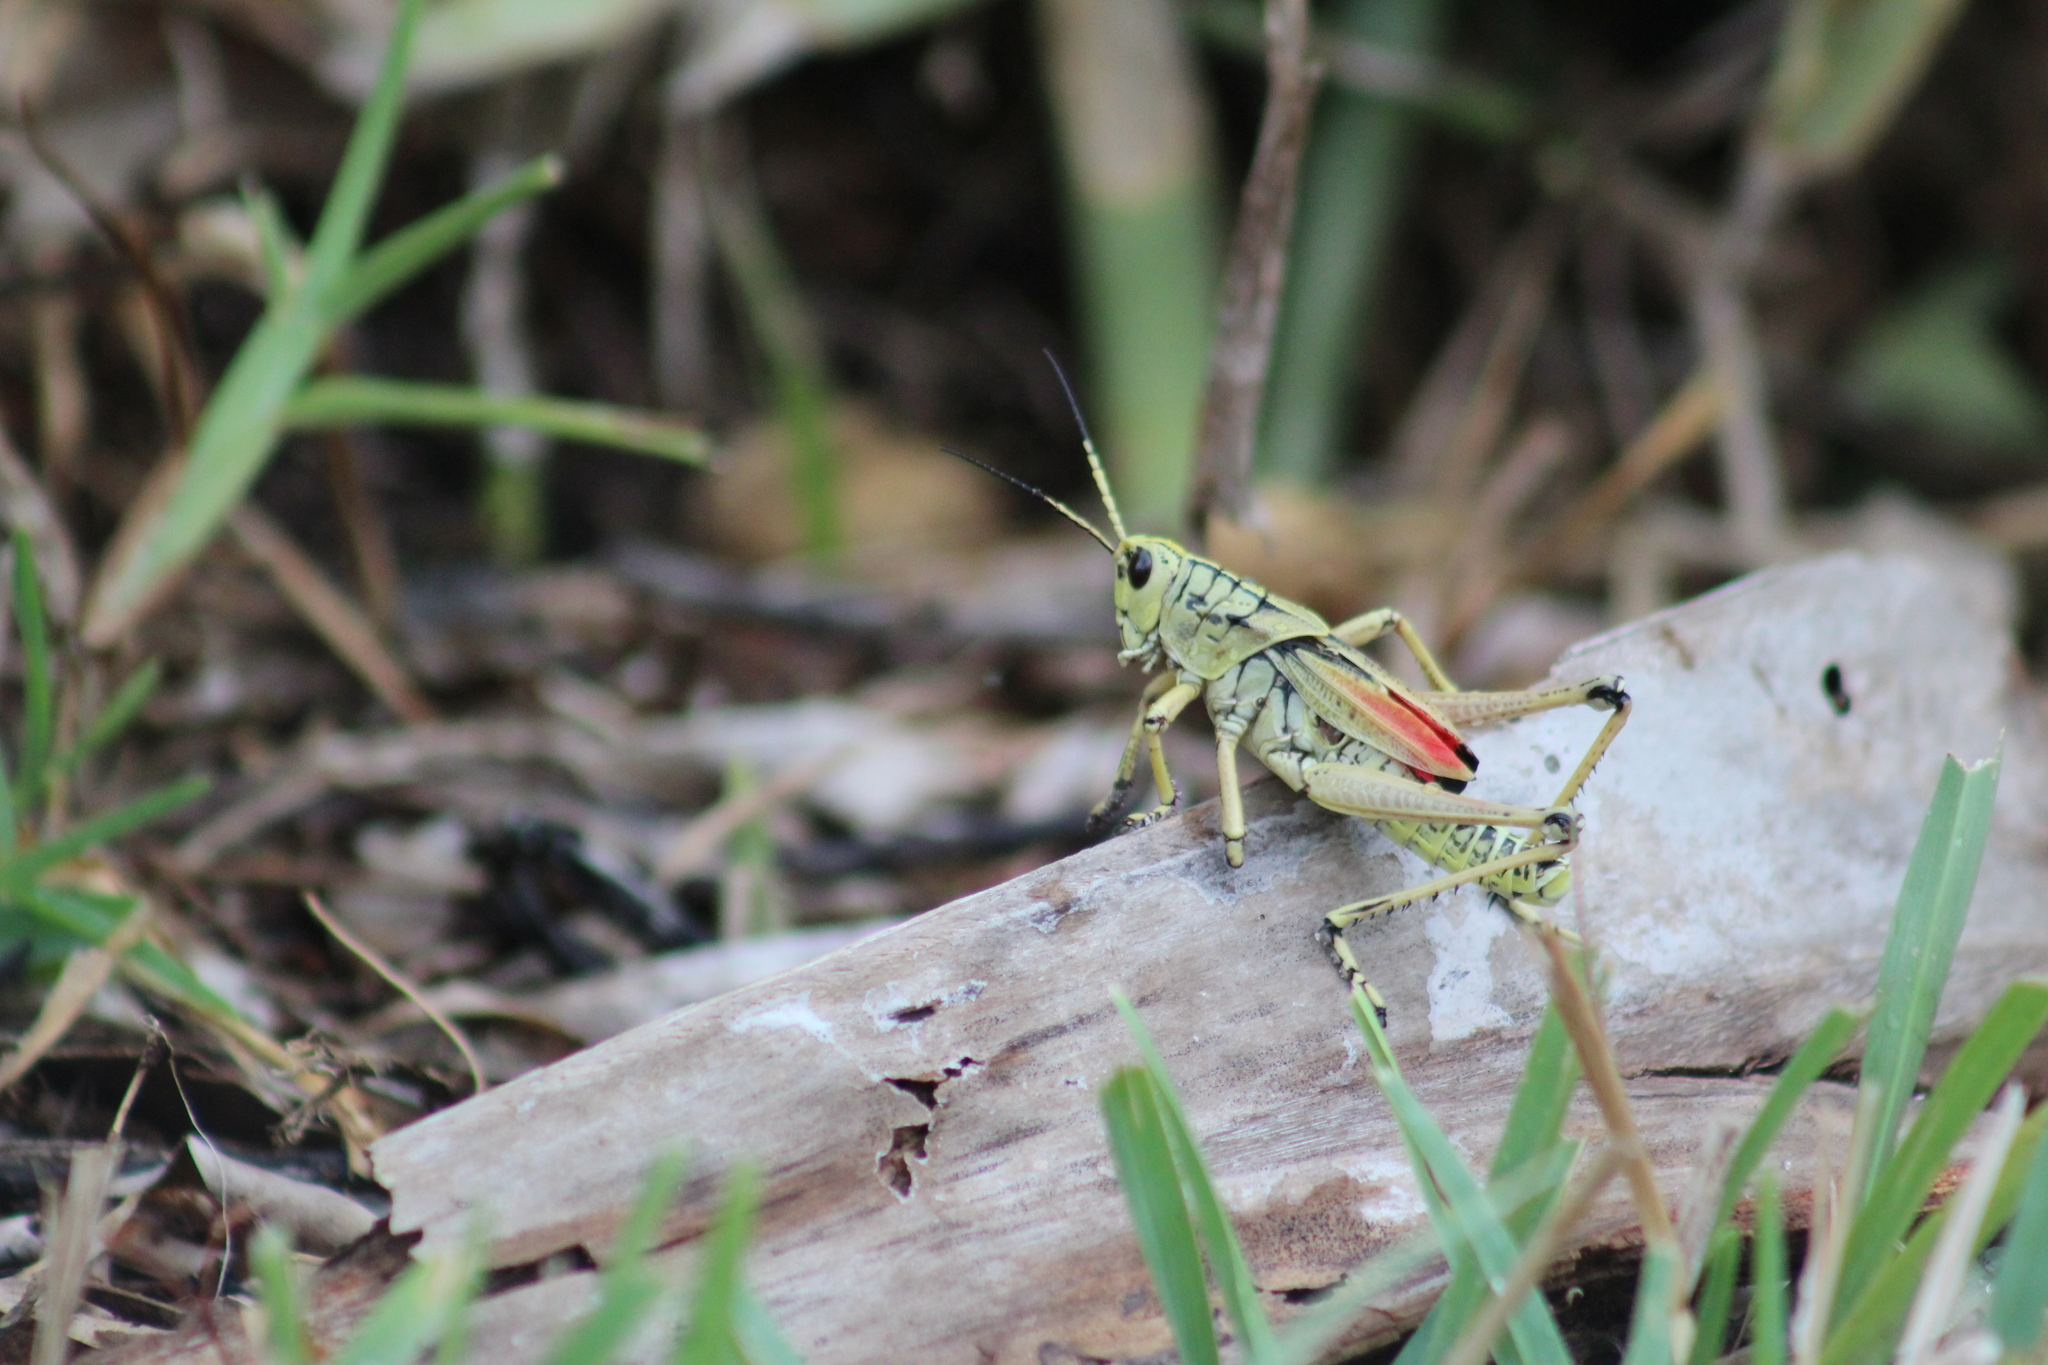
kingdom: Animalia
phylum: Arthropoda
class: Insecta
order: Orthoptera
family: Romaleidae
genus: Romalea
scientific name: Romalea microptera
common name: Eastern lubber grasshopper
